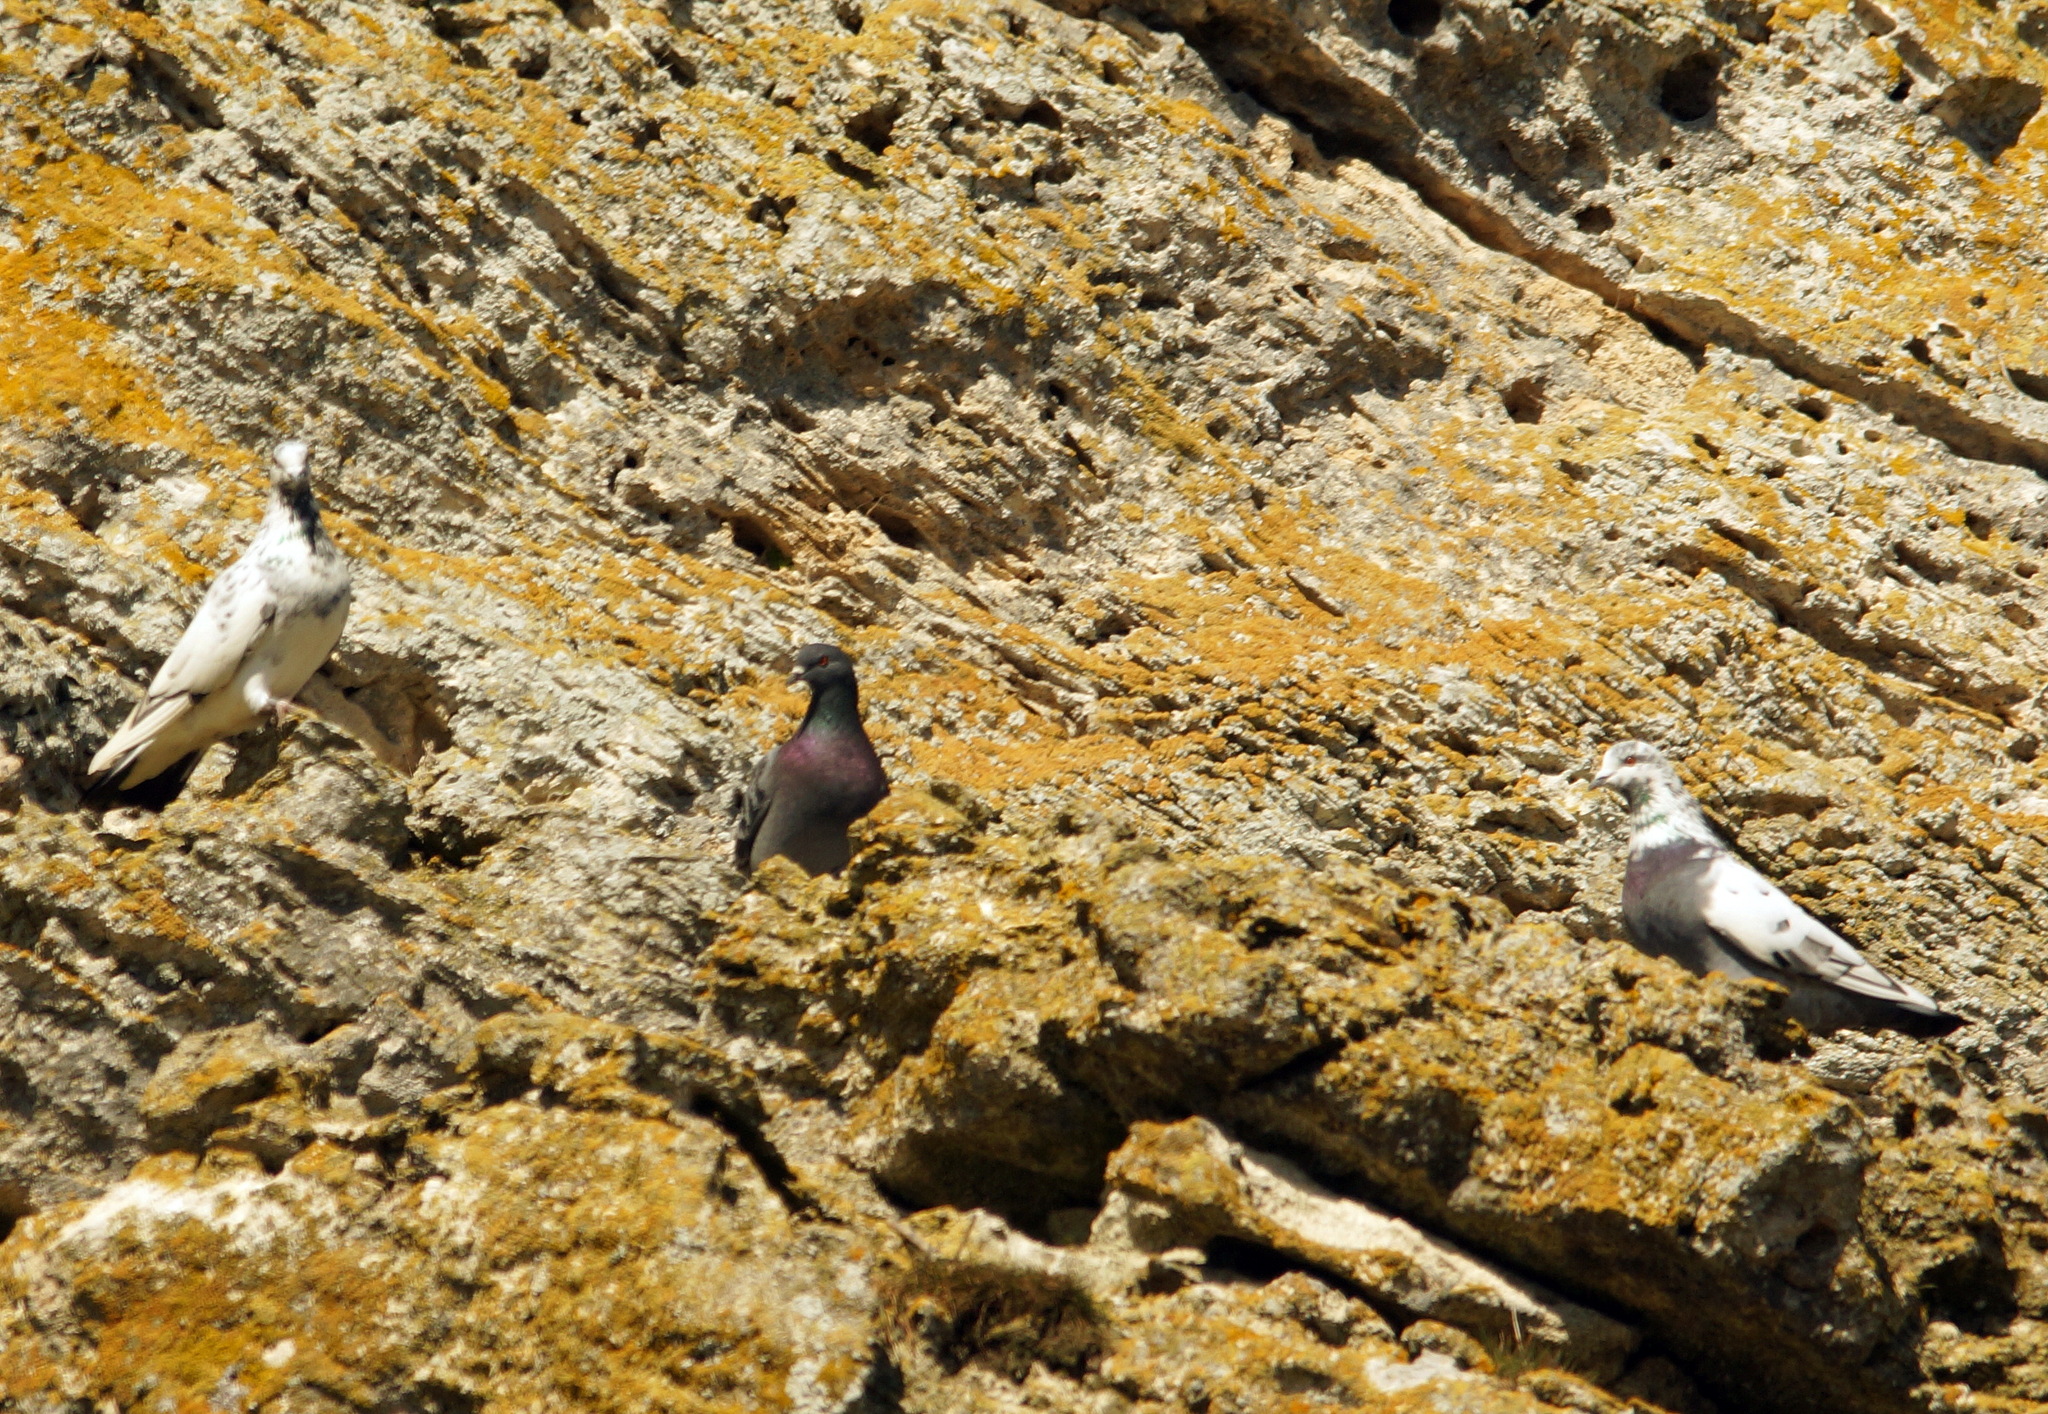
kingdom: Animalia
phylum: Chordata
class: Aves
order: Columbiformes
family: Columbidae
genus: Columba
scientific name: Columba livia
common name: Rock pigeon
